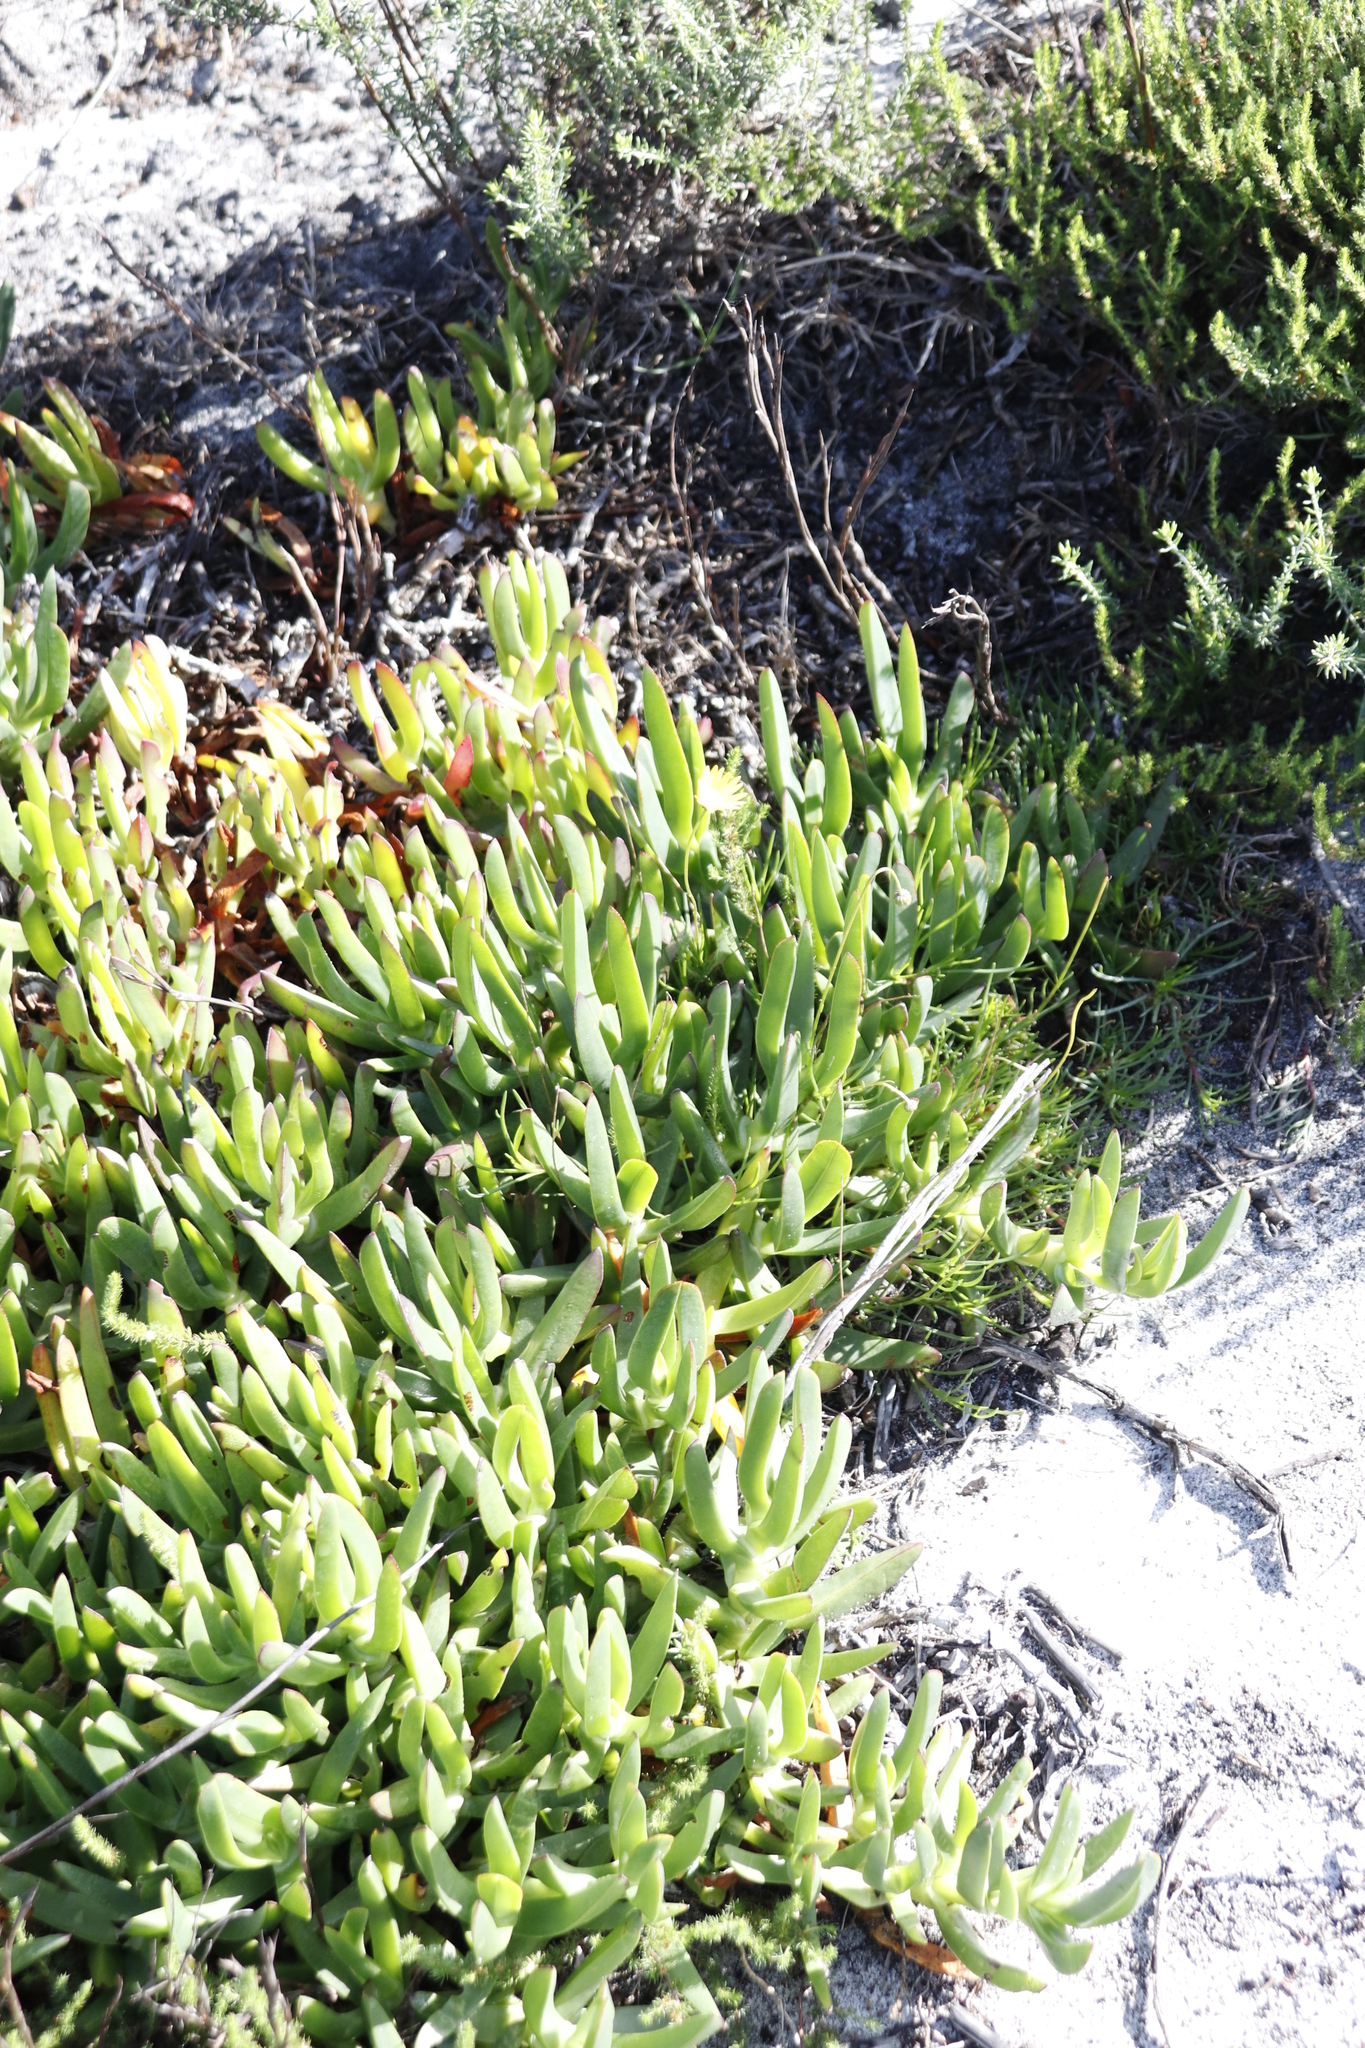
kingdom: Plantae
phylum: Tracheophyta
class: Magnoliopsida
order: Caryophyllales
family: Aizoaceae
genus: Carpobrotus
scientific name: Carpobrotus edulis
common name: Hottentot-fig
